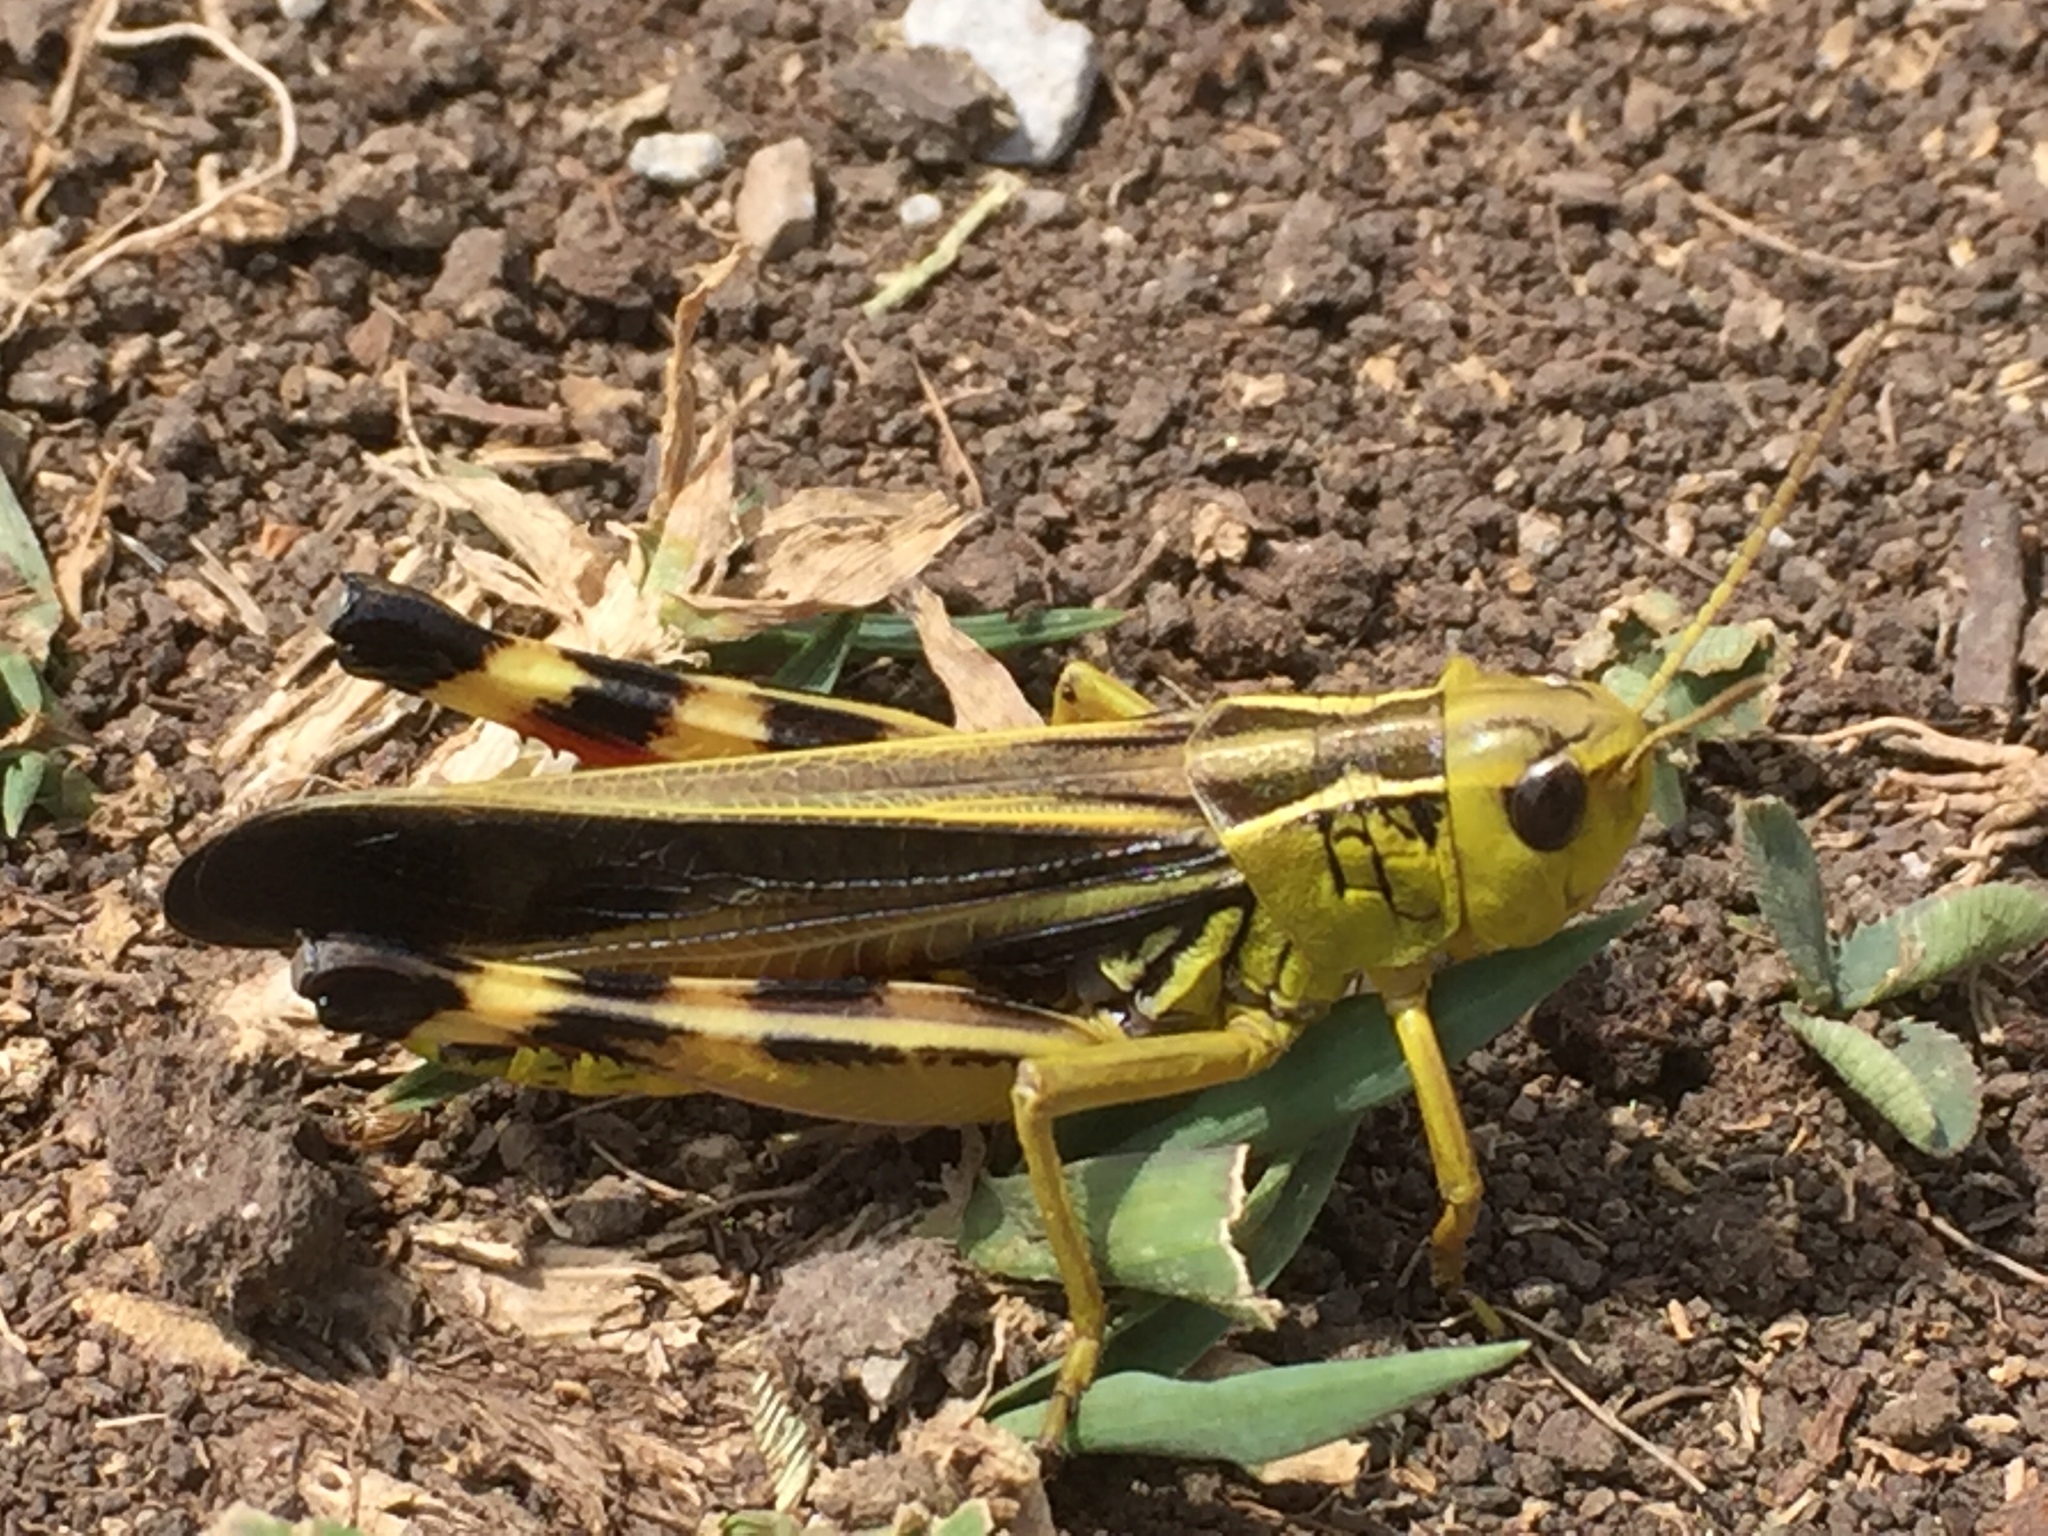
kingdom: Animalia
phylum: Arthropoda
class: Insecta
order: Orthoptera
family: Acrididae
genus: Arcyptera
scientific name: Arcyptera fusca
